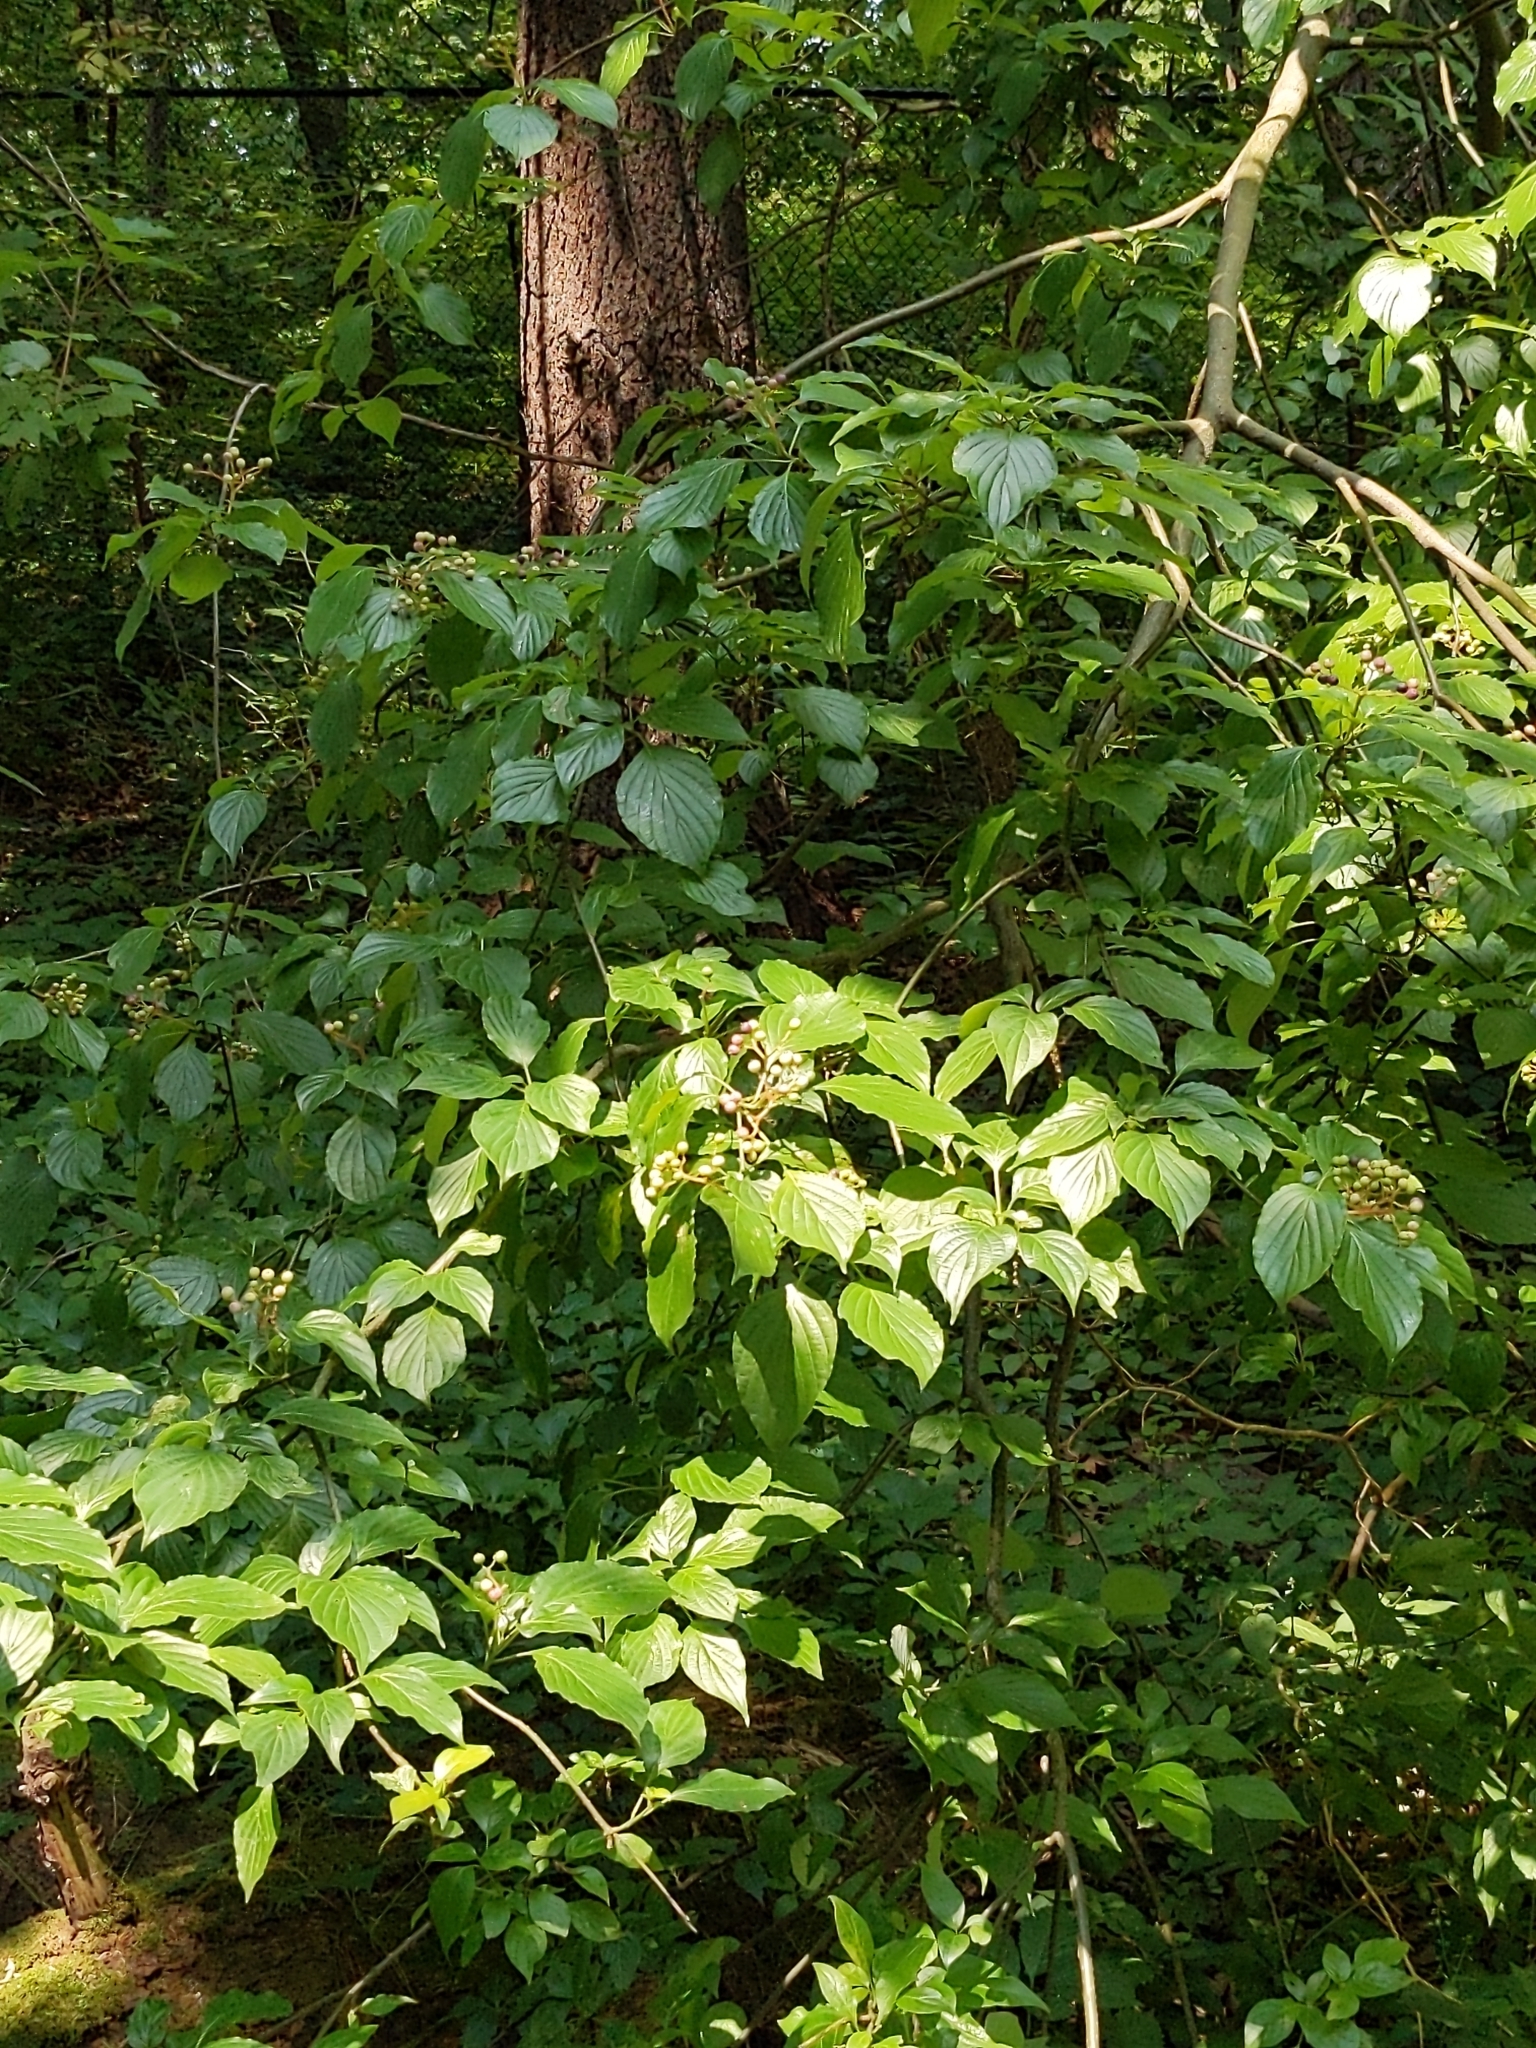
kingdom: Plantae
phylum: Tracheophyta
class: Magnoliopsida
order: Cornales
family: Cornaceae
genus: Cornus
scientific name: Cornus alternifolia
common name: Pagoda dogwood
